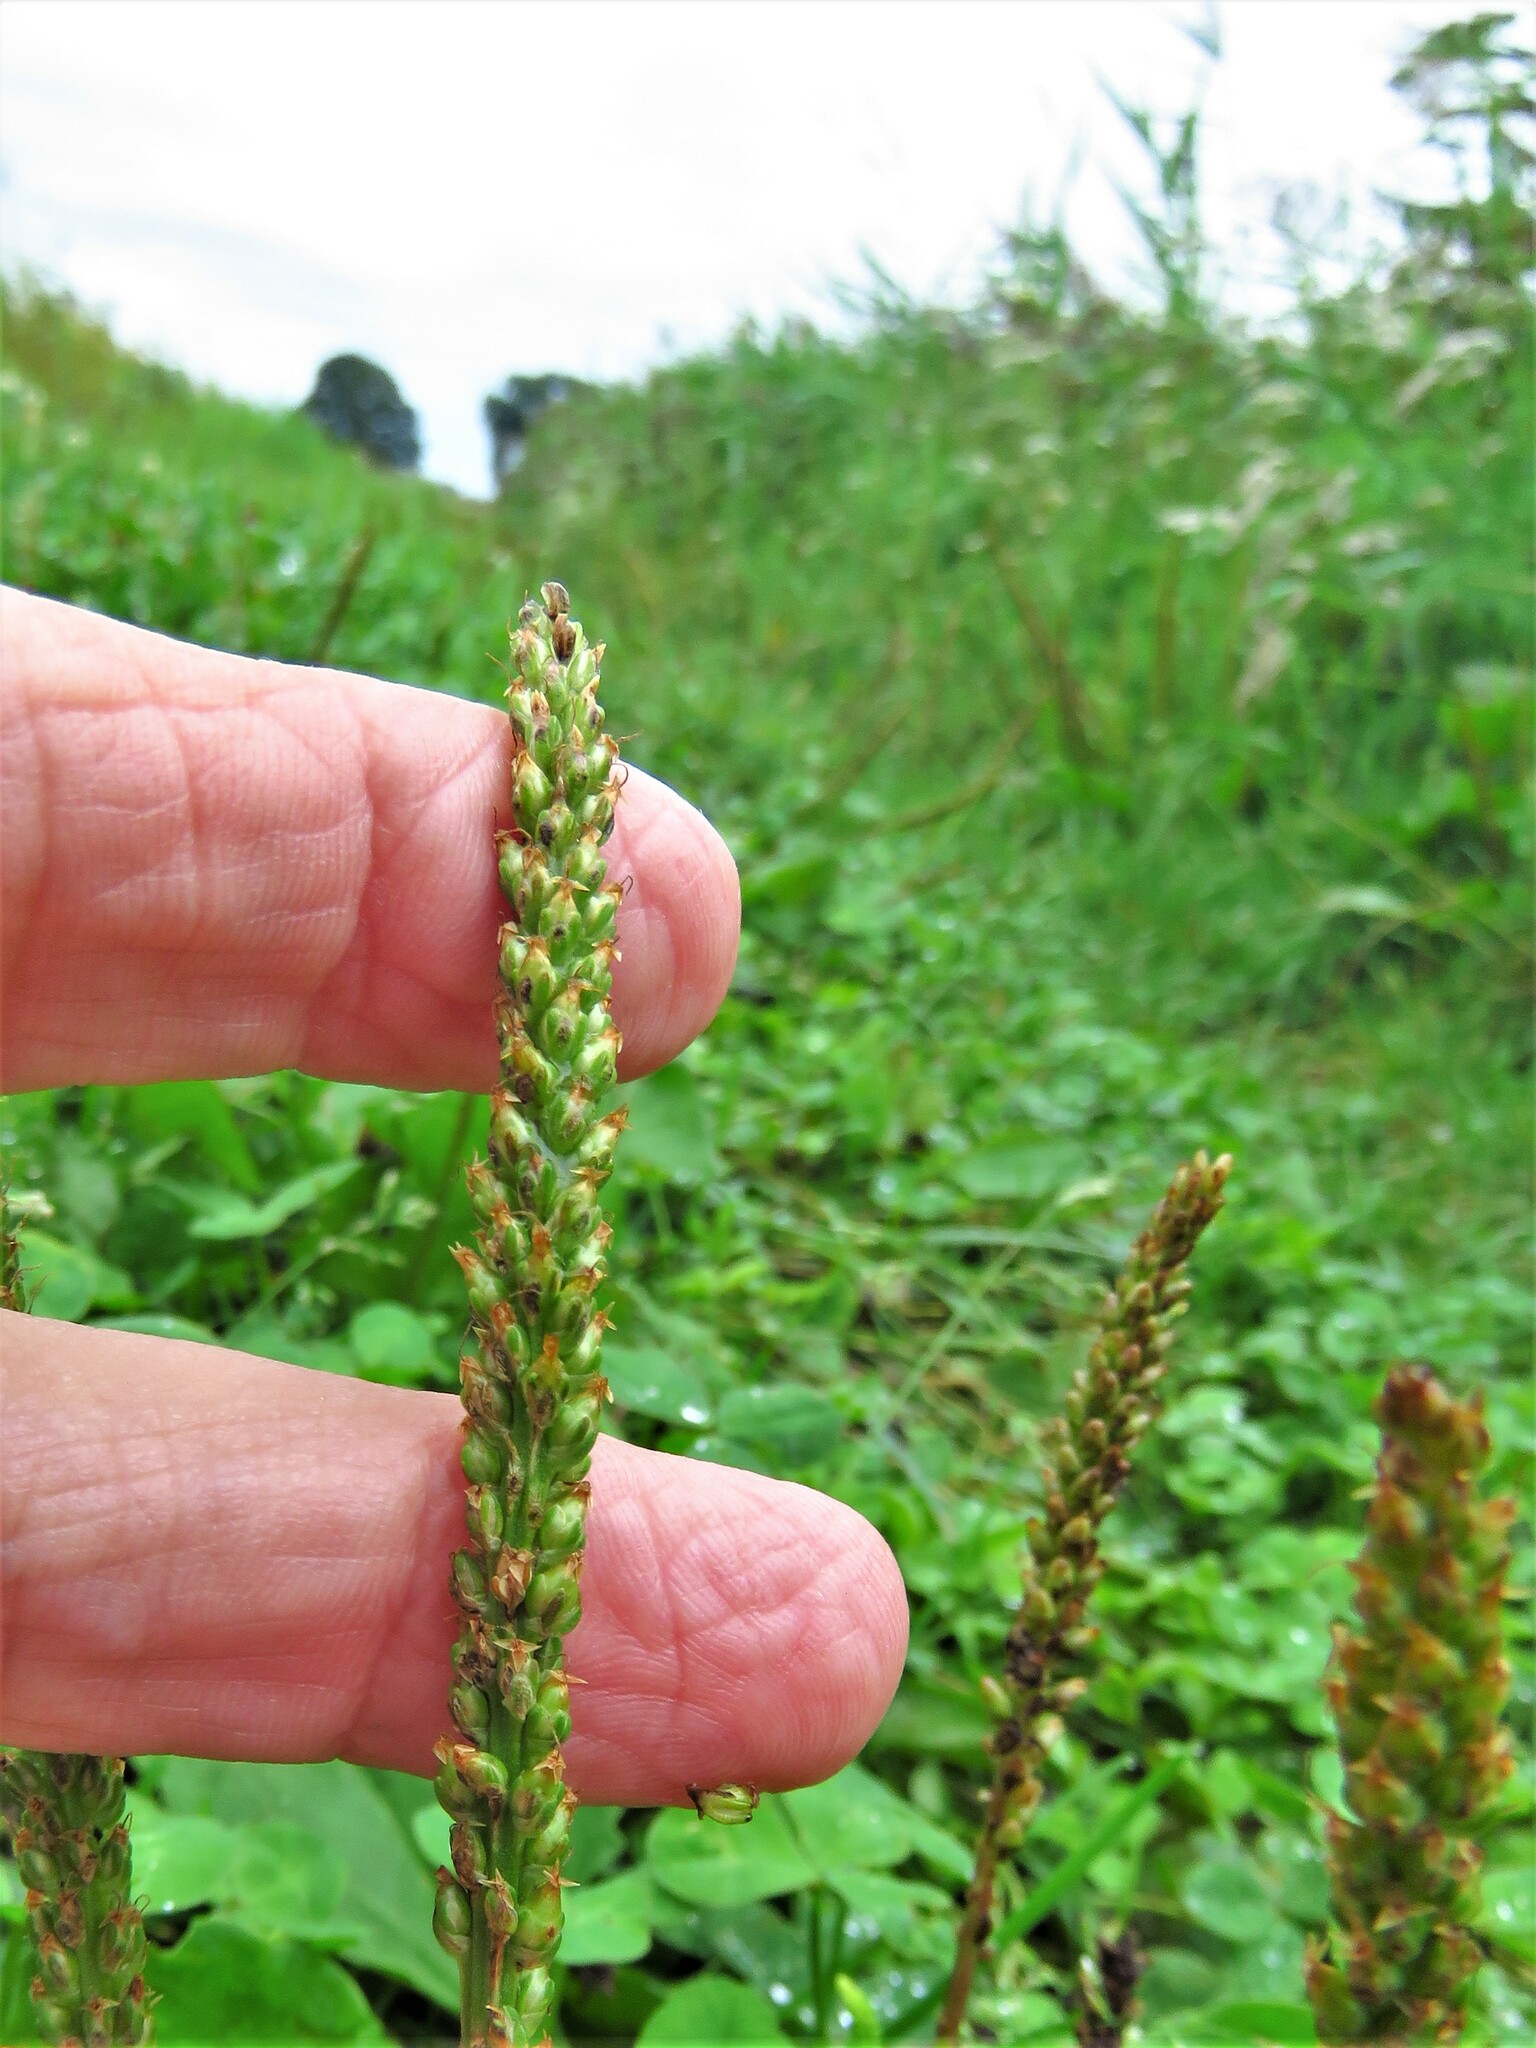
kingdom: Plantae
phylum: Tracheophyta
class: Magnoliopsida
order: Lamiales
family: Plantaginaceae
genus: Plantago
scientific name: Plantago major
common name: Common plantain
